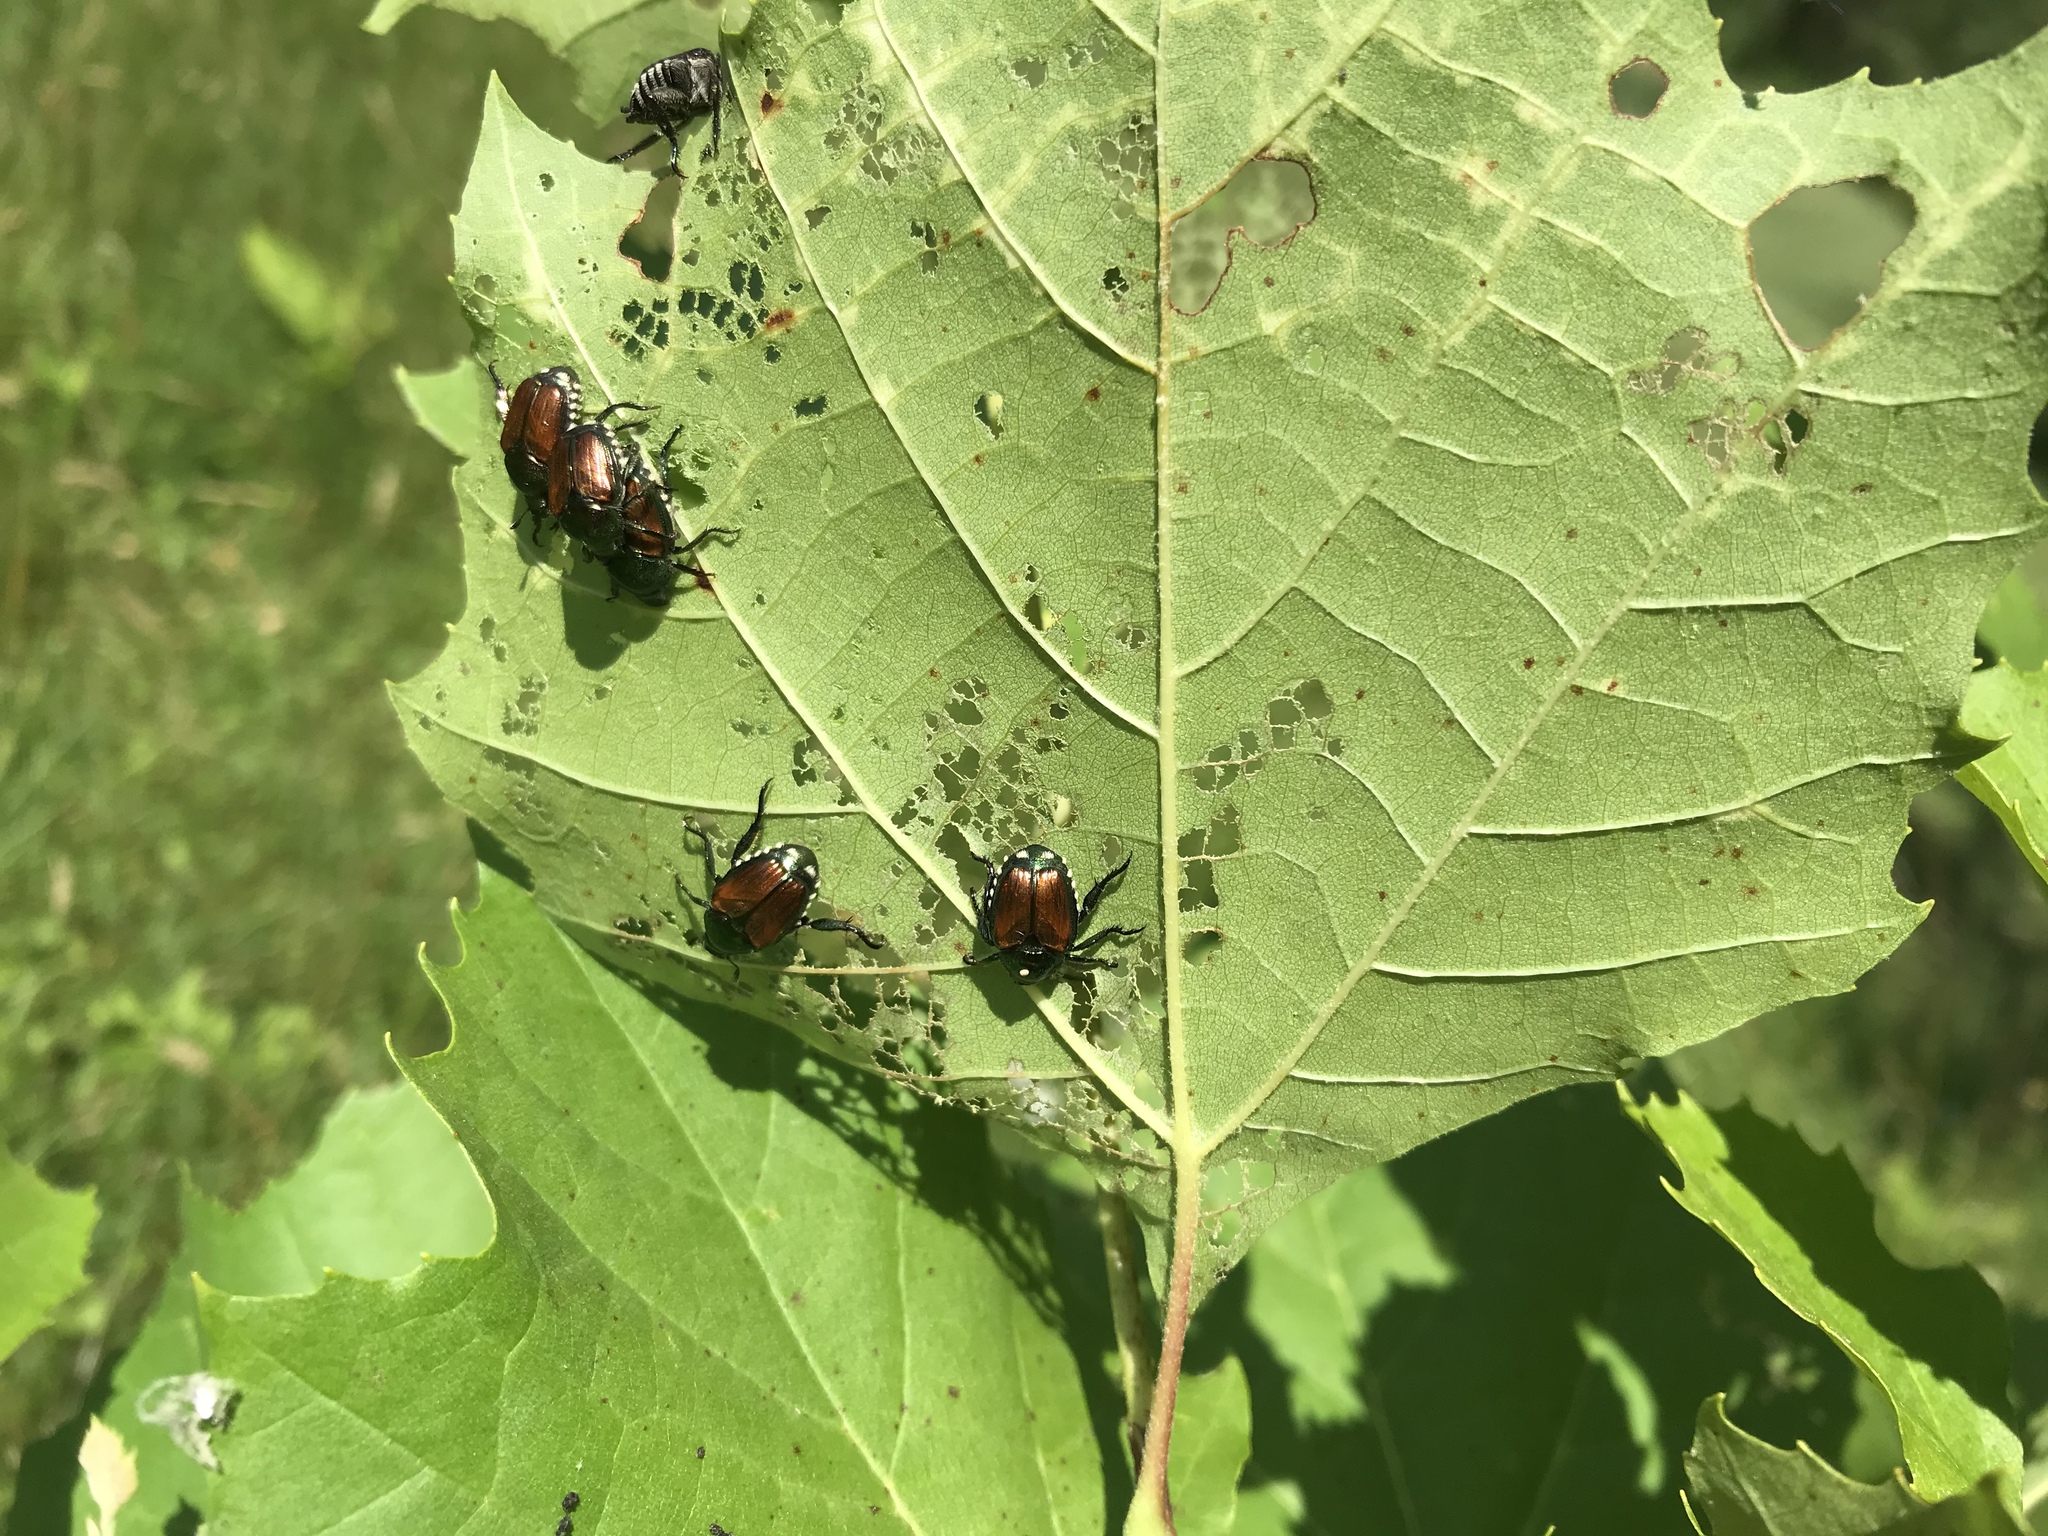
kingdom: Animalia
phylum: Arthropoda
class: Insecta
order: Coleoptera
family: Scarabaeidae
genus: Popillia
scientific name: Popillia japonica
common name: Japanese beetle
